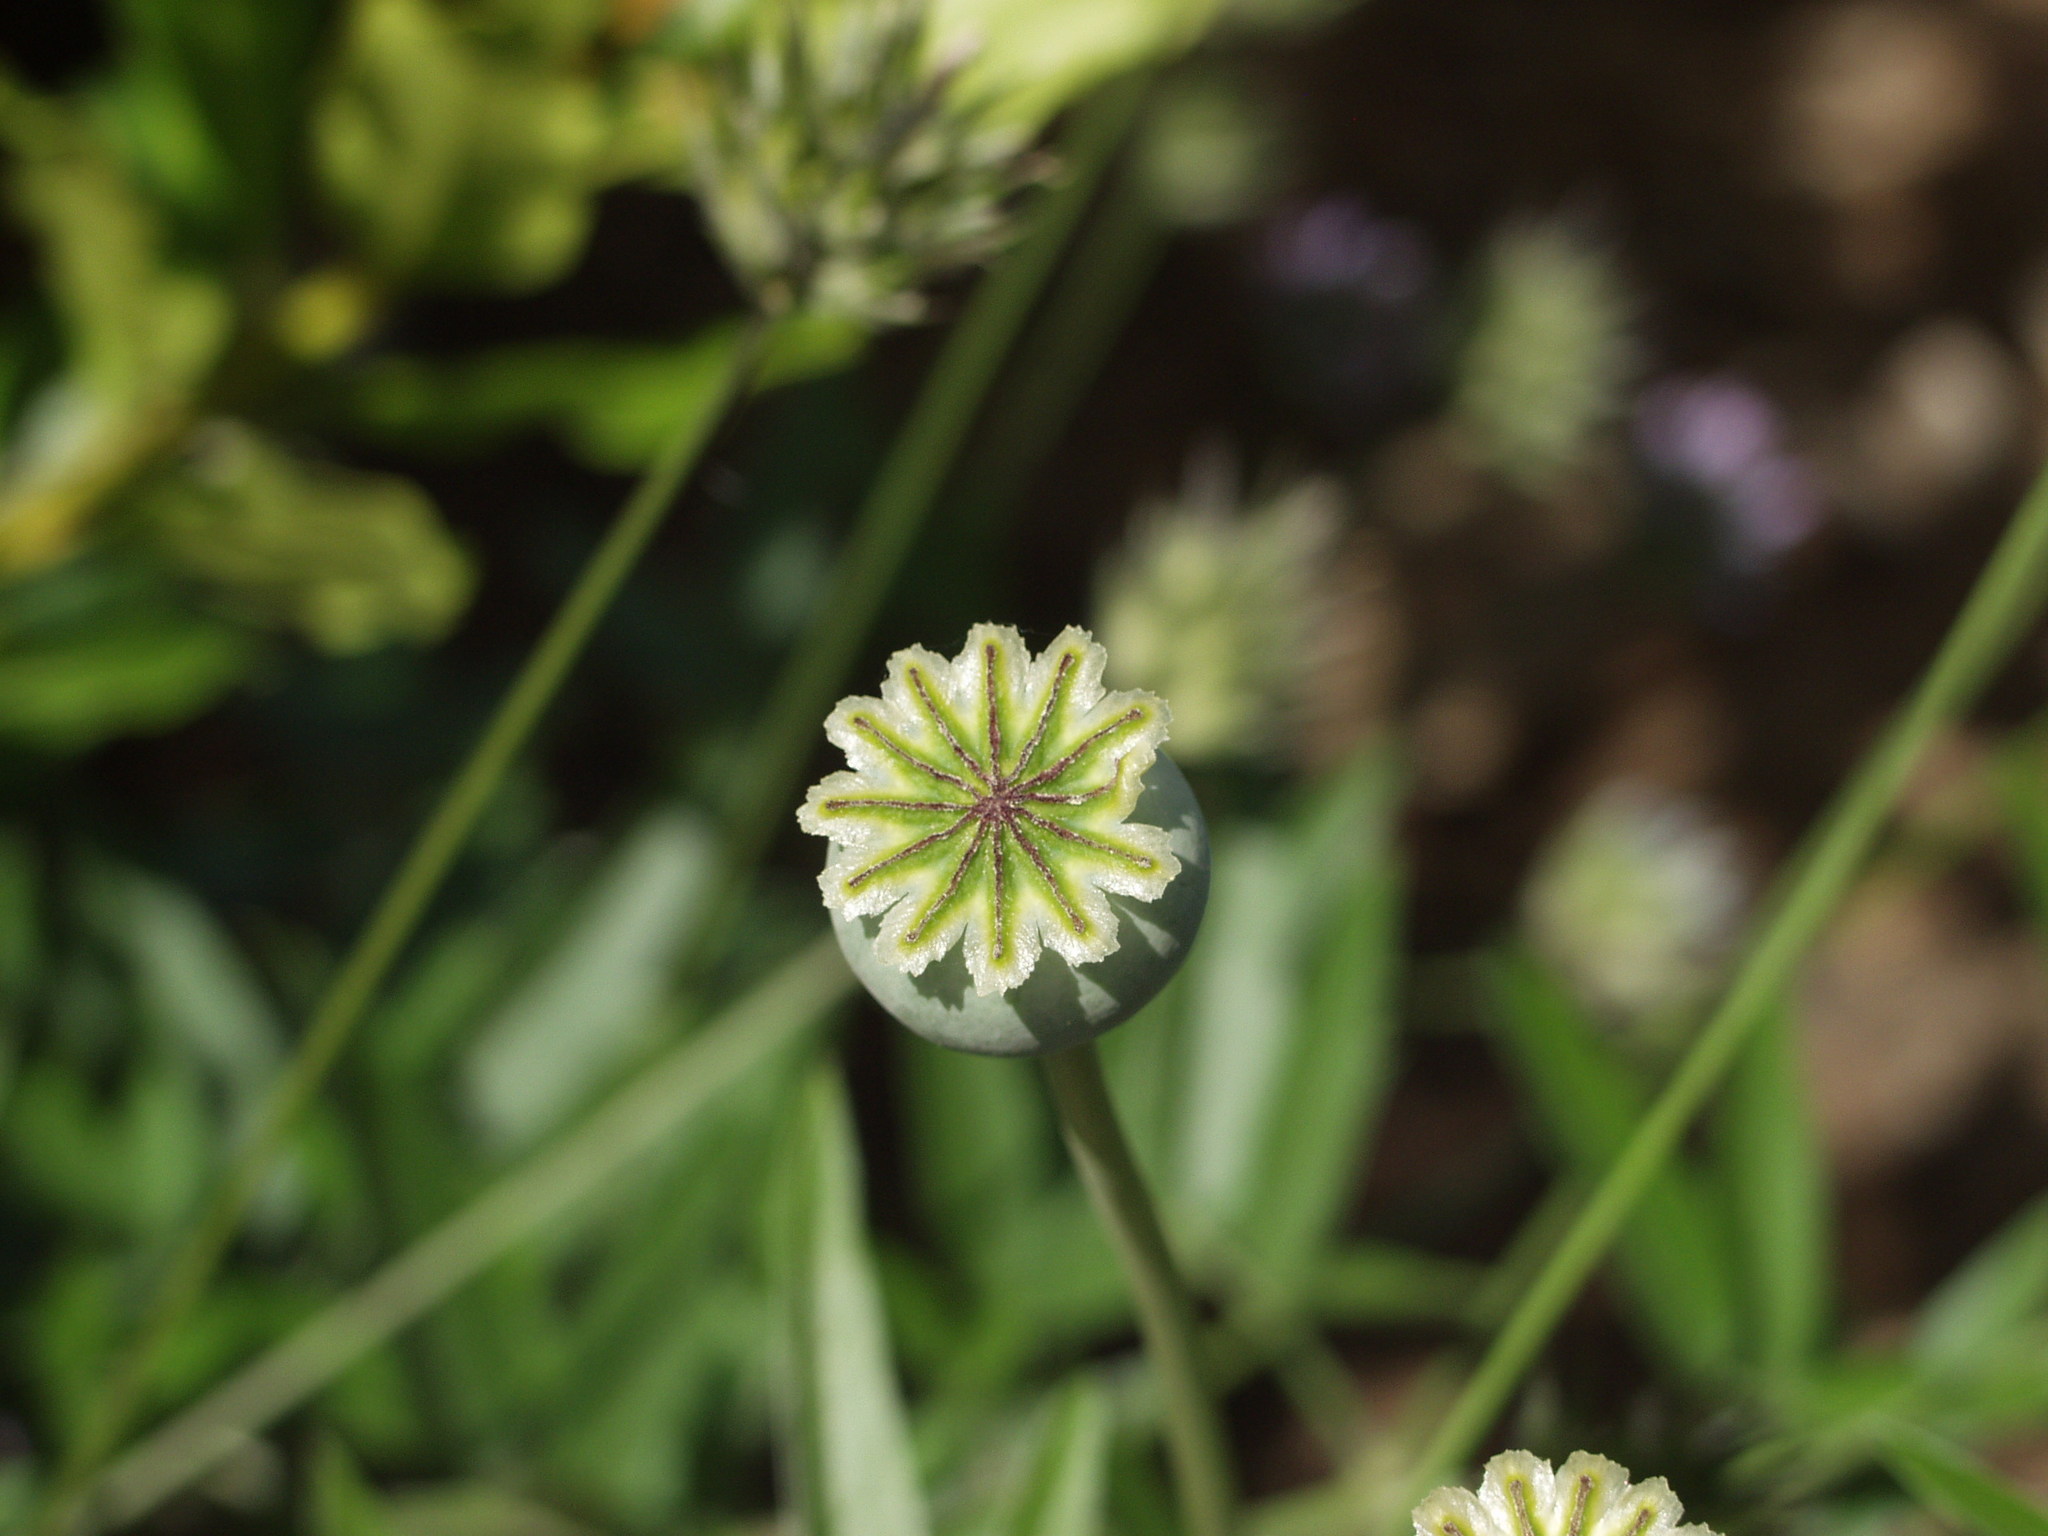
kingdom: Plantae
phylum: Tracheophyta
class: Magnoliopsida
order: Ranunculales
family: Papaveraceae
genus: Papaver
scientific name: Papaver somniferum
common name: Opium poppy
